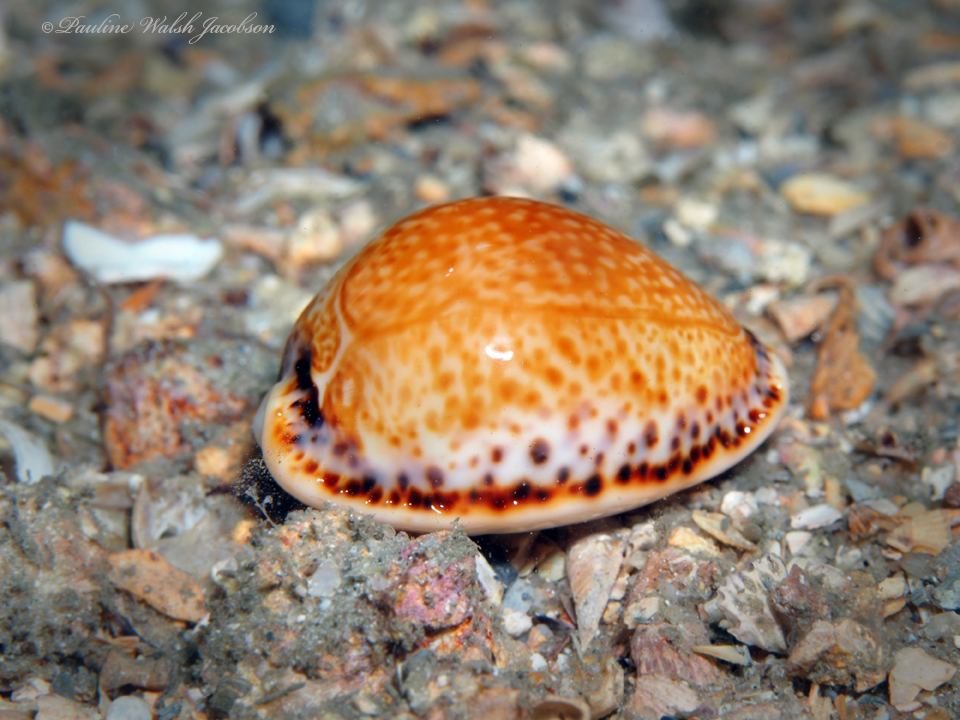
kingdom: Animalia
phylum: Mollusca
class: Gastropoda
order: Littorinimorpha
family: Cypraeidae
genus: Naria
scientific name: Naria acicularis
